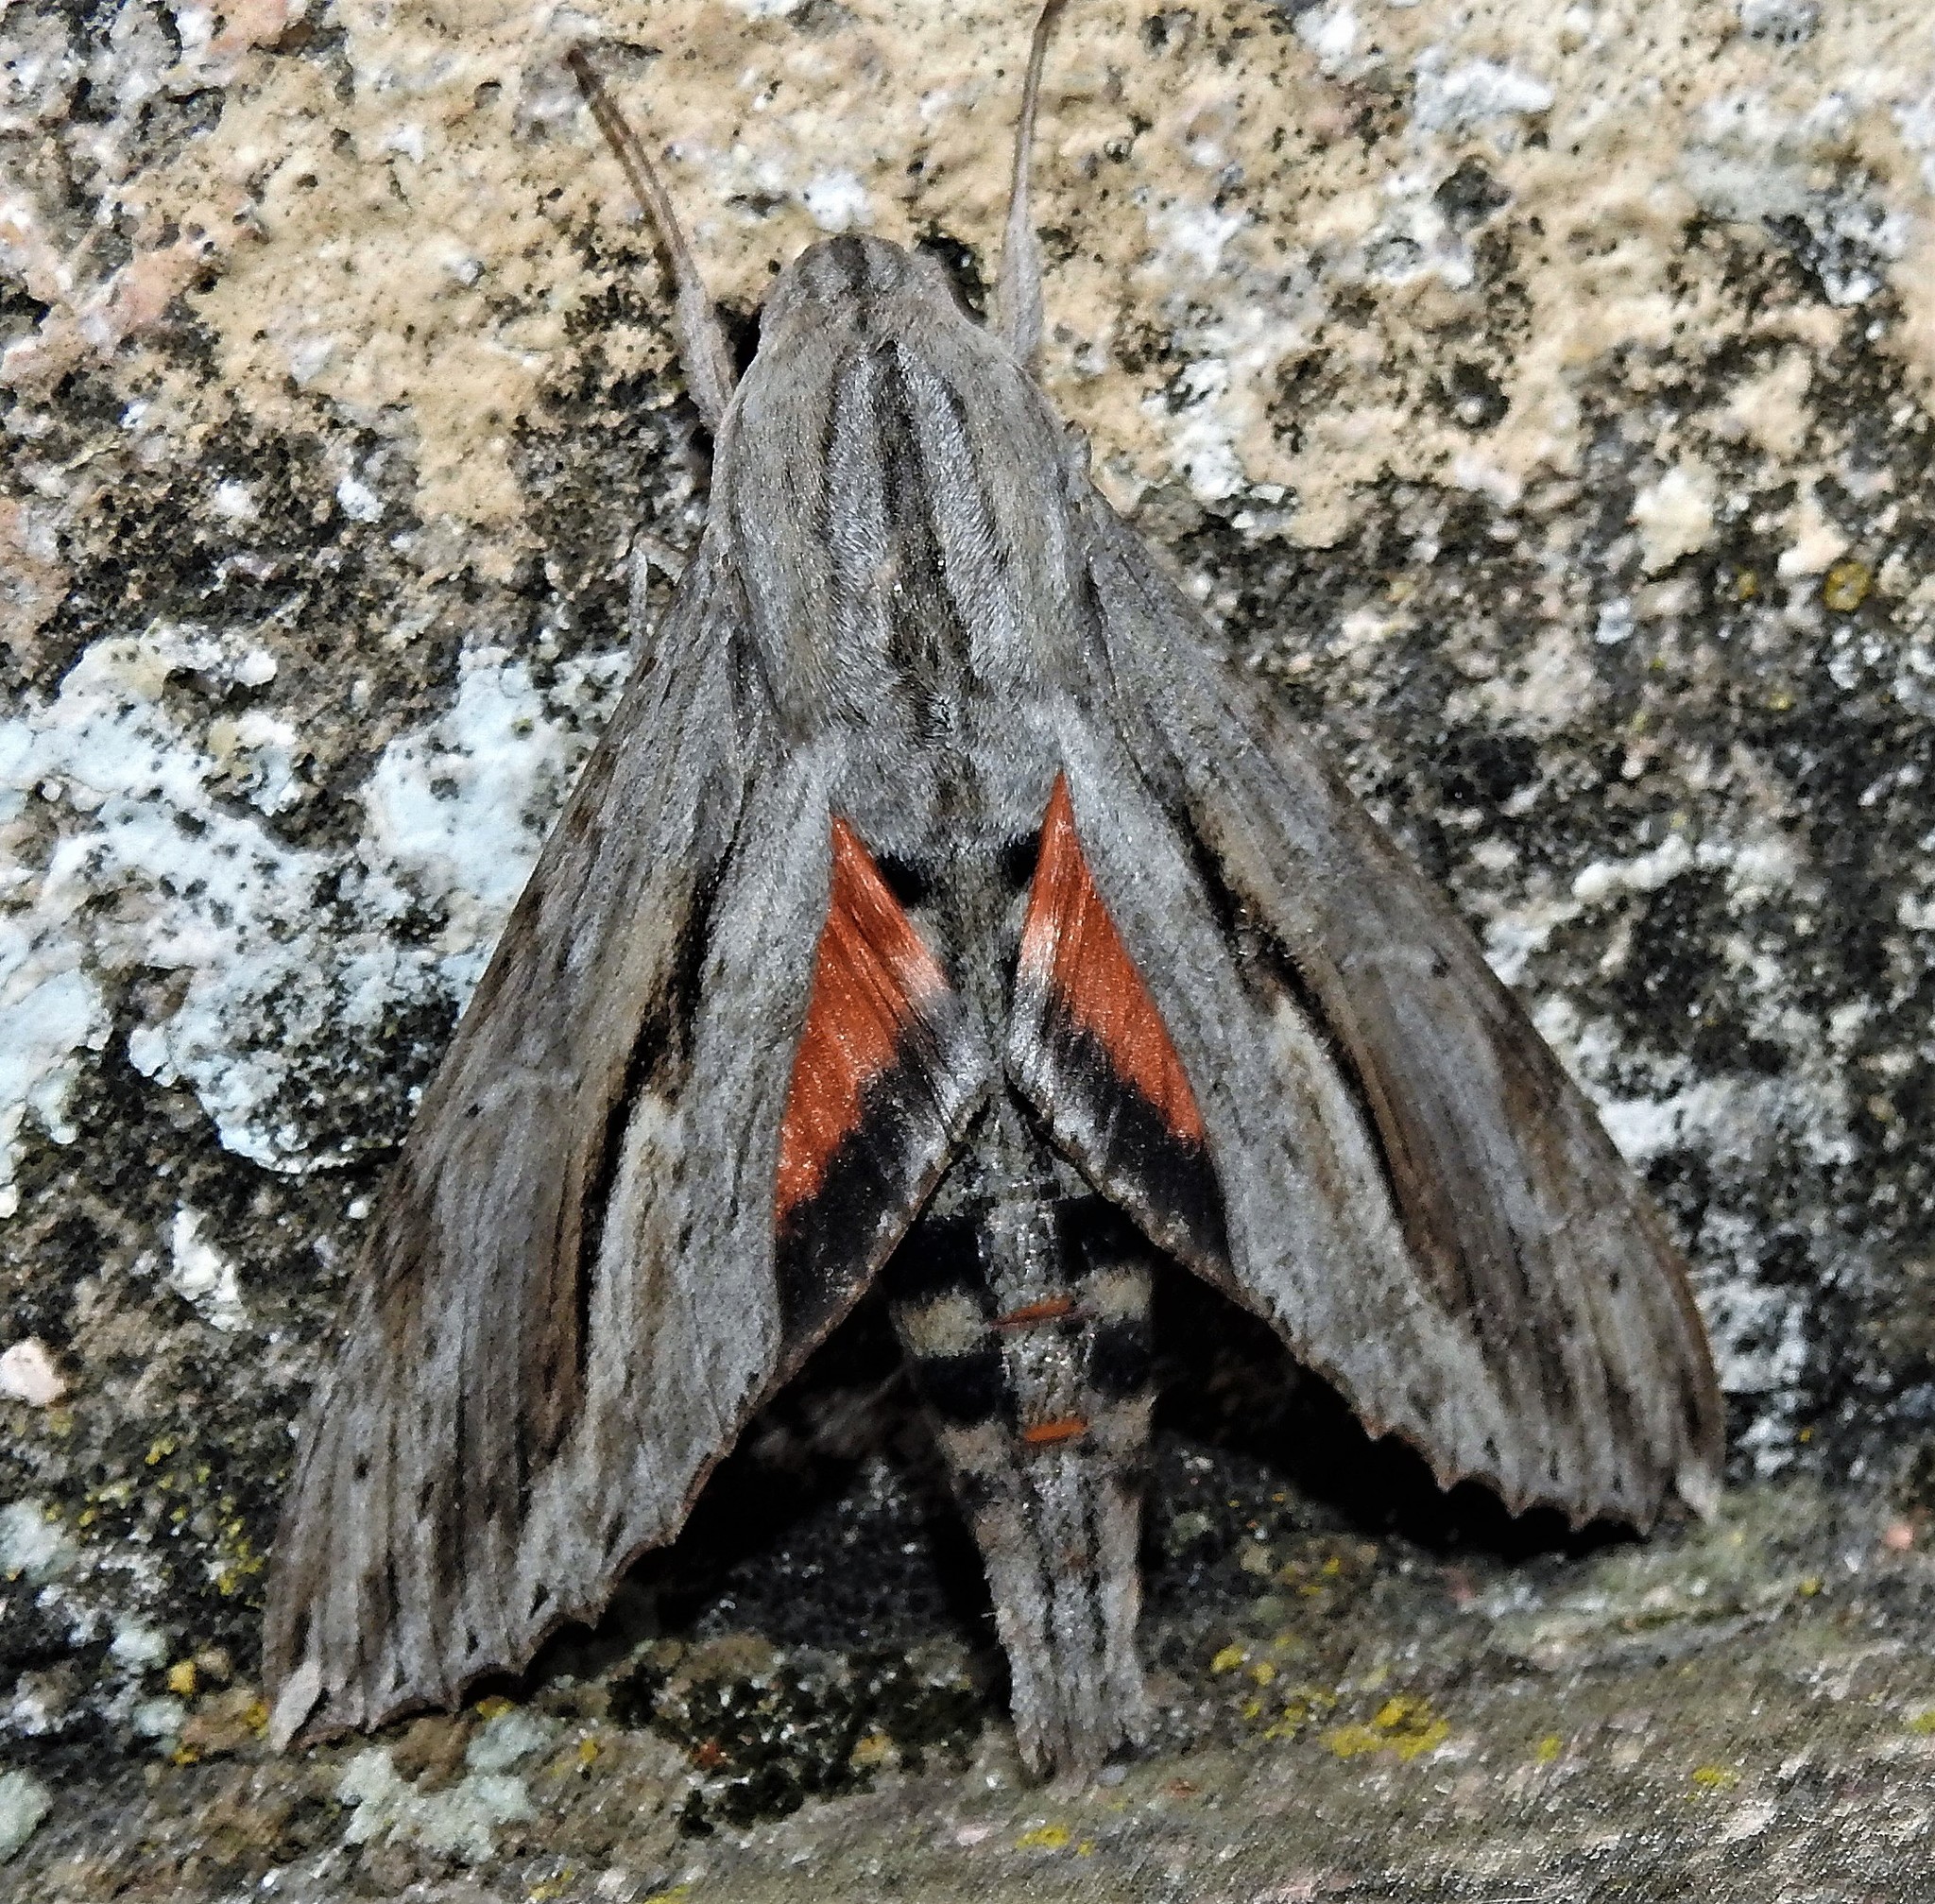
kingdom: Animalia
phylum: Arthropoda
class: Insecta
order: Lepidoptera
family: Sphingidae
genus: Erinnyis
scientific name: Erinnyis ello
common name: Ello sphinx
